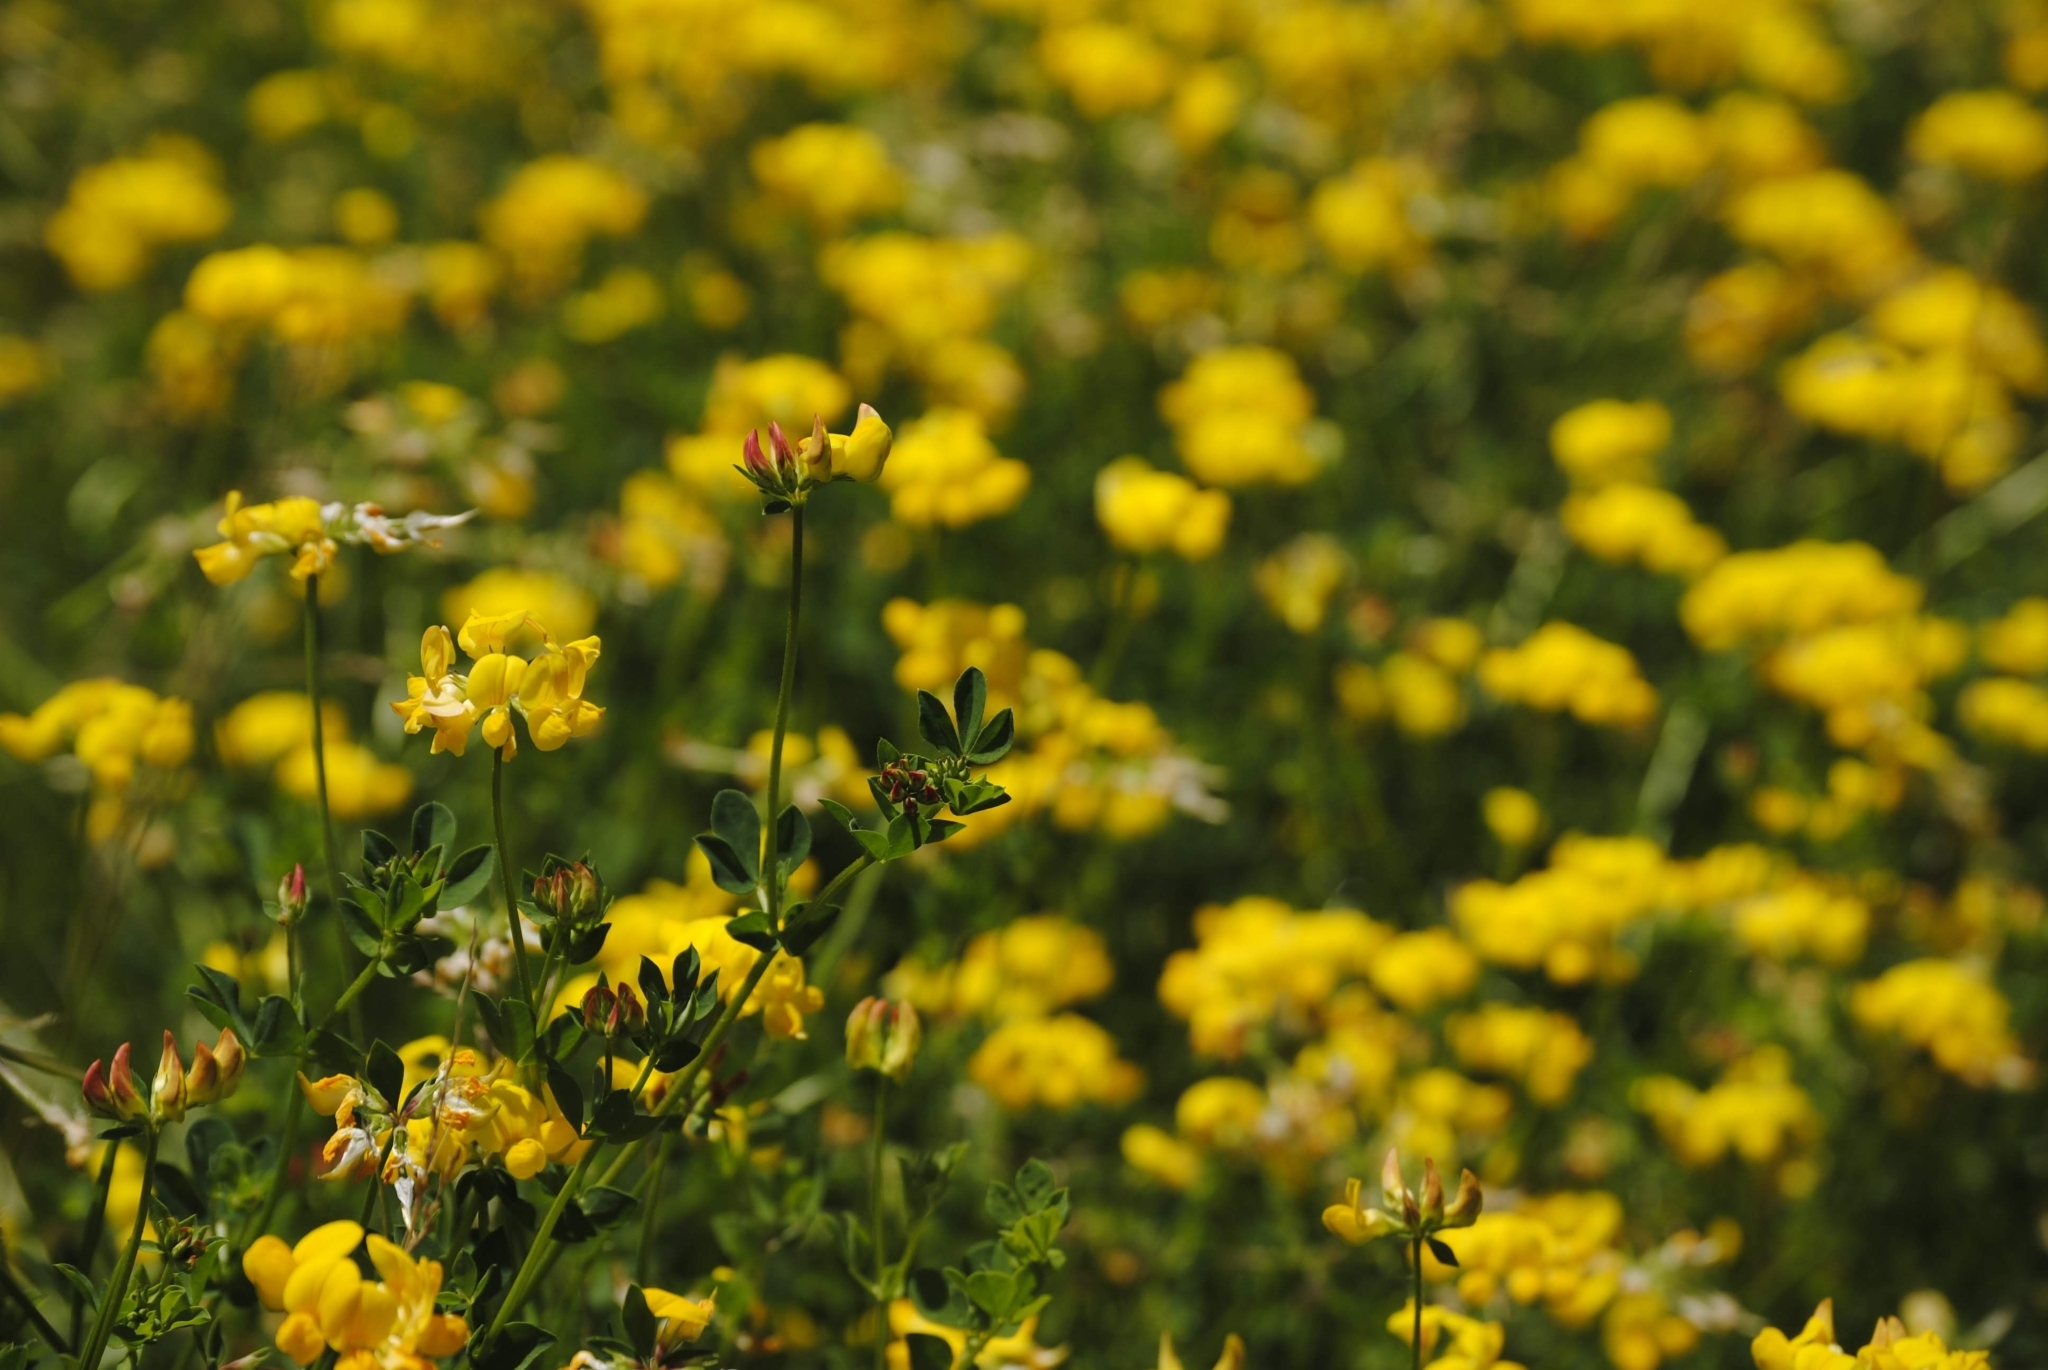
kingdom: Plantae
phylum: Tracheophyta
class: Magnoliopsida
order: Fabales
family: Fabaceae
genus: Lotus
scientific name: Lotus corniculatus
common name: Common bird's-foot-trefoil
